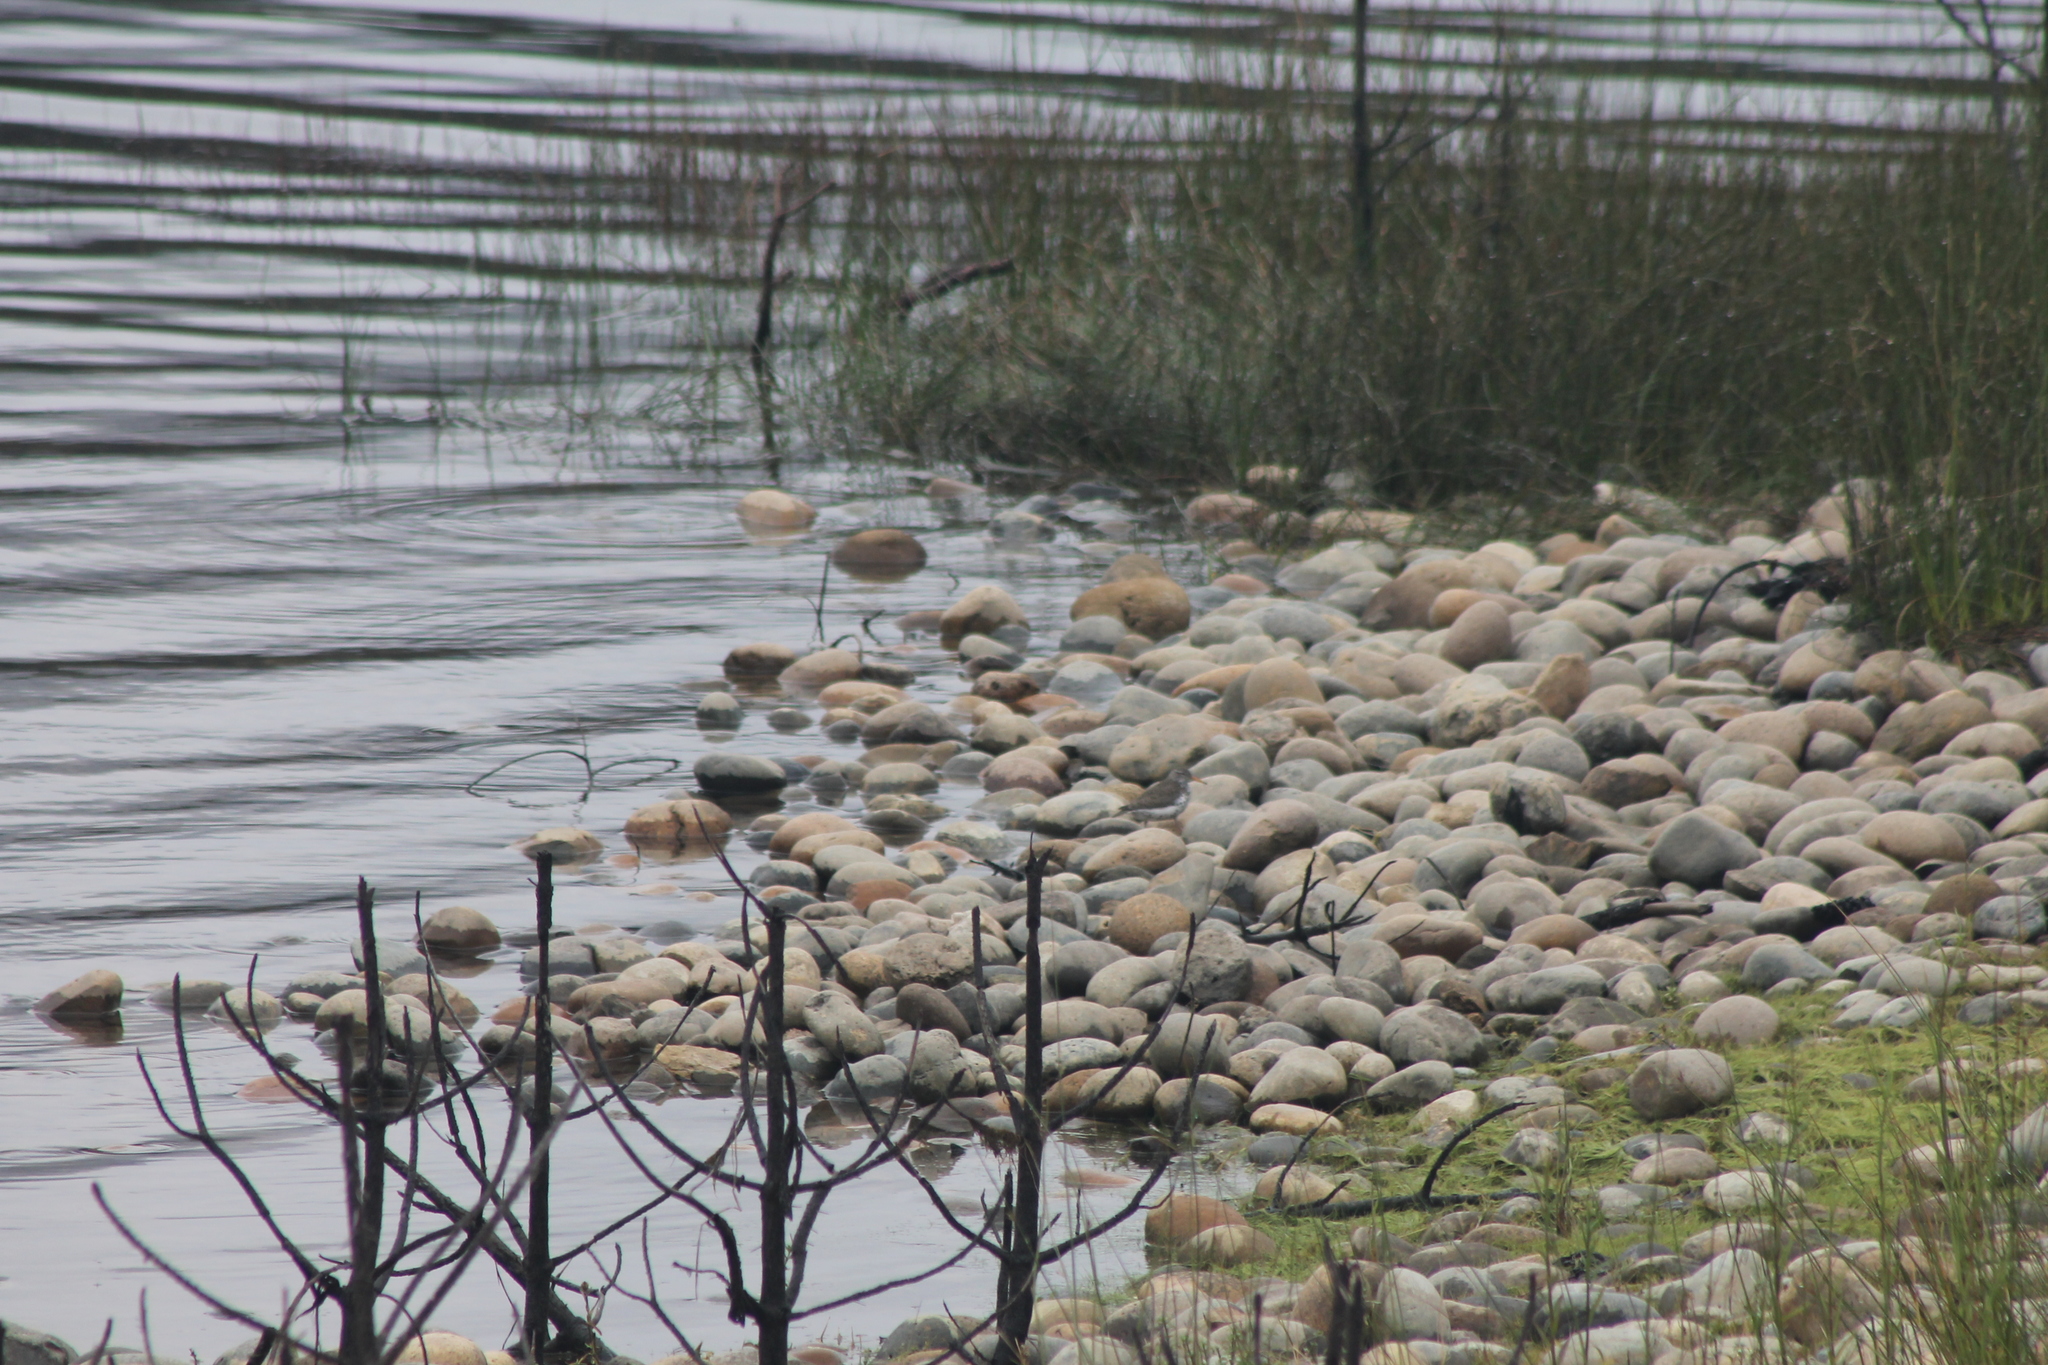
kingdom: Animalia
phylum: Chordata
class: Aves
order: Charadriiformes
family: Scolopacidae
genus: Actitis
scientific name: Actitis macularius
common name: Spotted sandpiper
